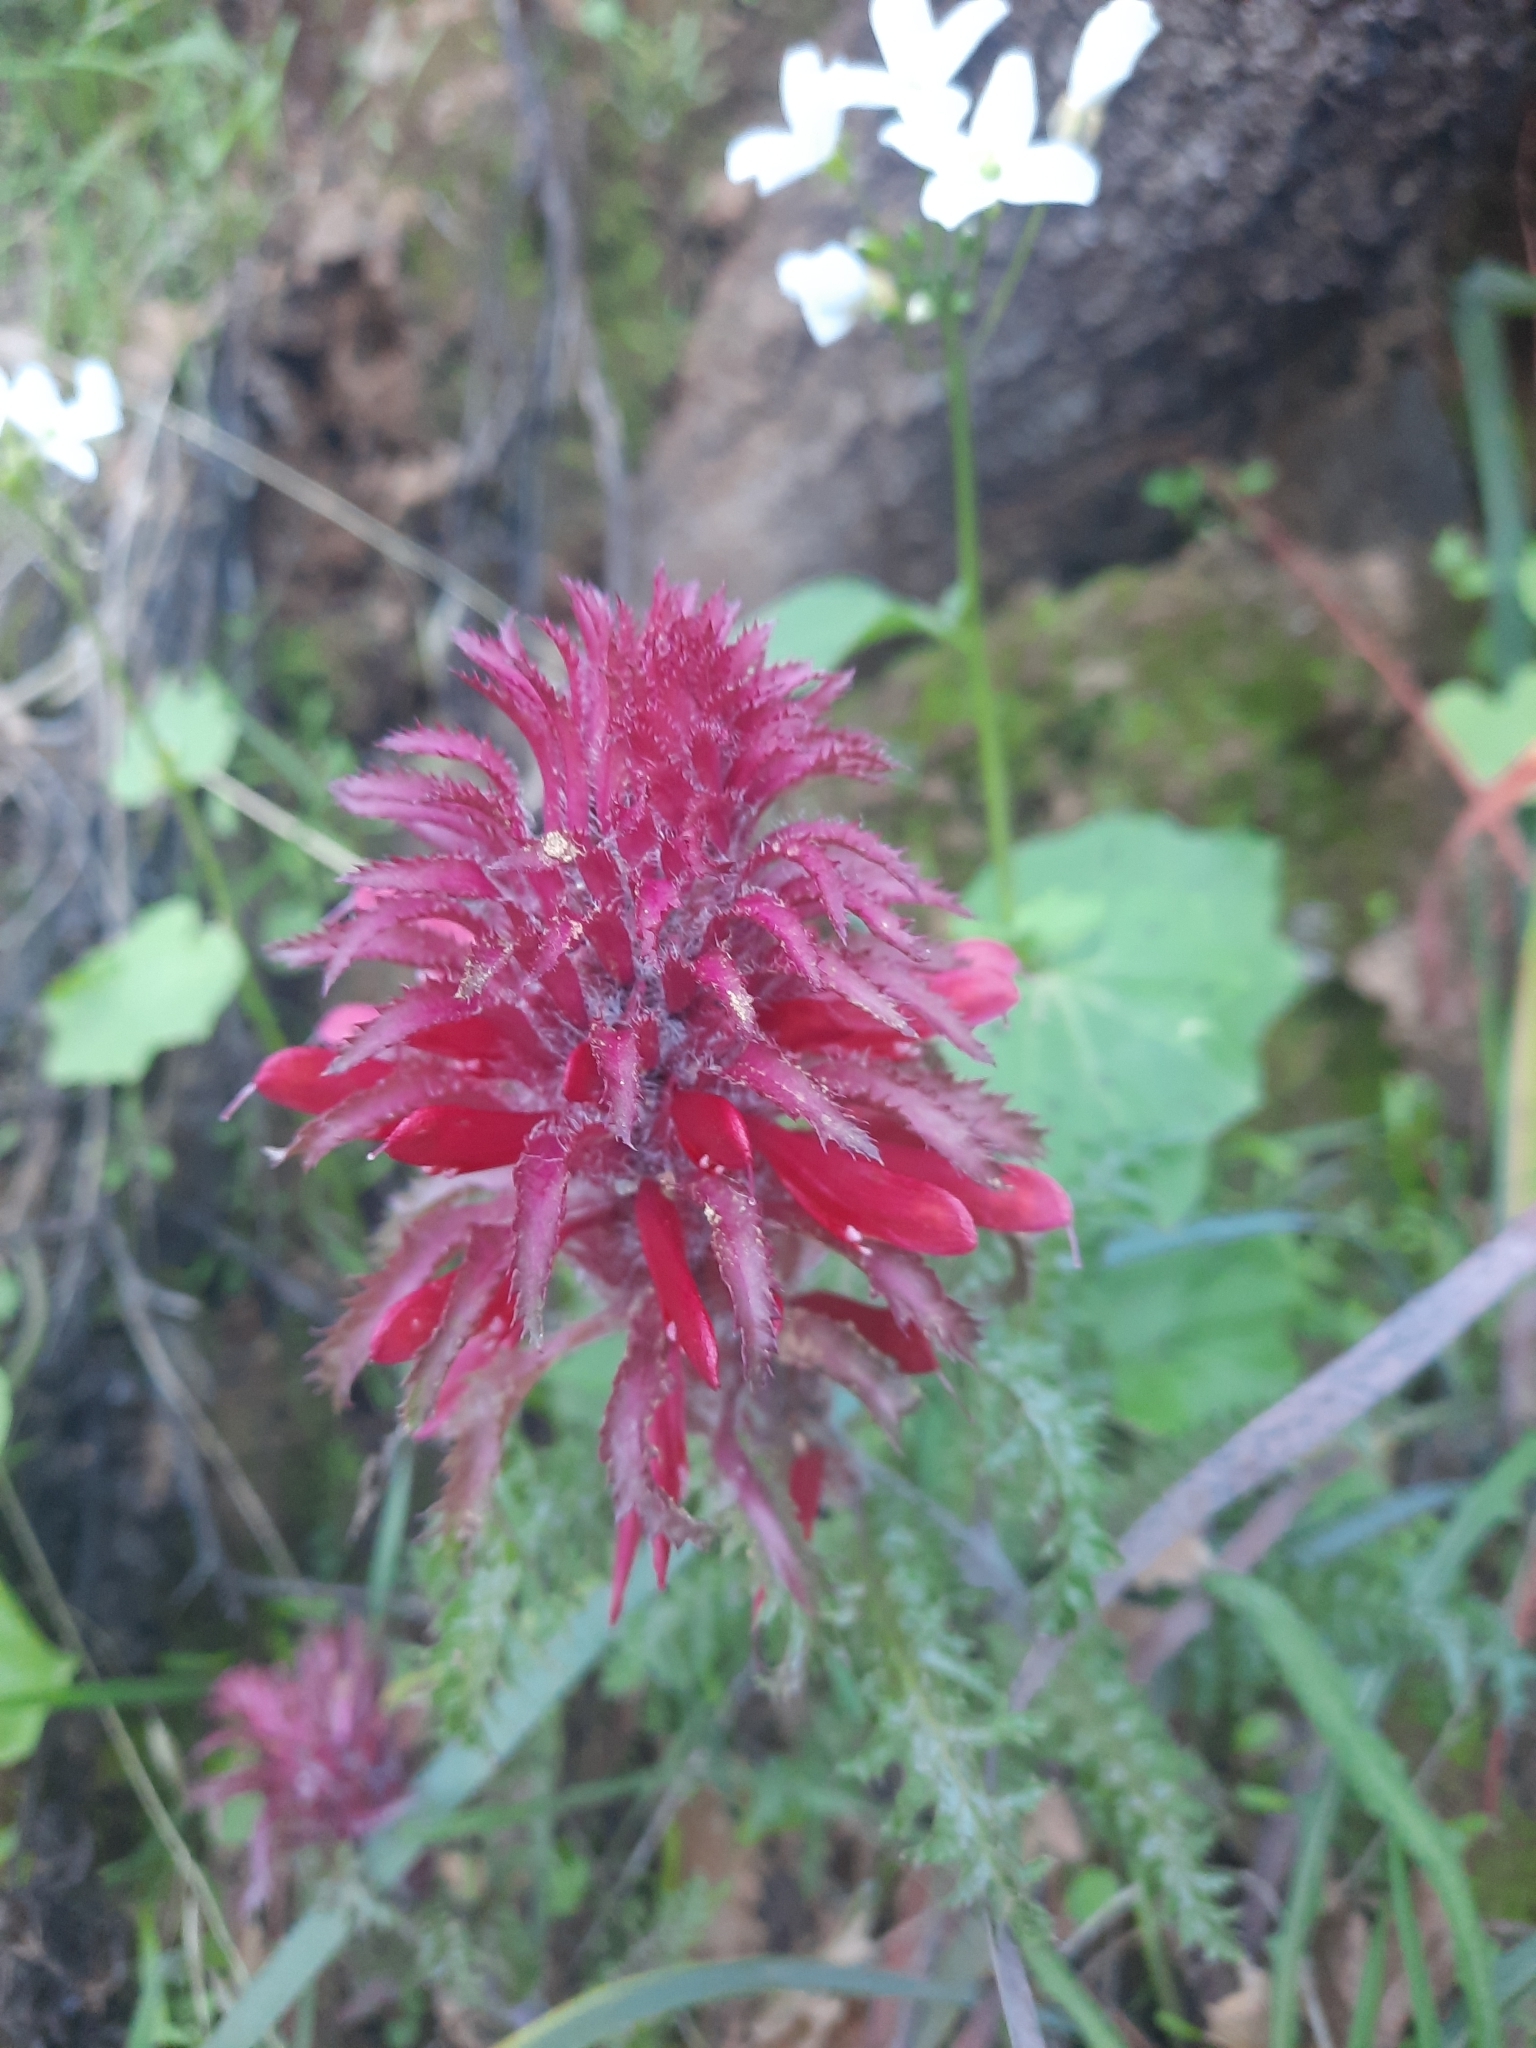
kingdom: Plantae
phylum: Tracheophyta
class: Magnoliopsida
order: Lamiales
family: Orobanchaceae
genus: Pedicularis
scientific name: Pedicularis densiflora
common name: Indian warrior
